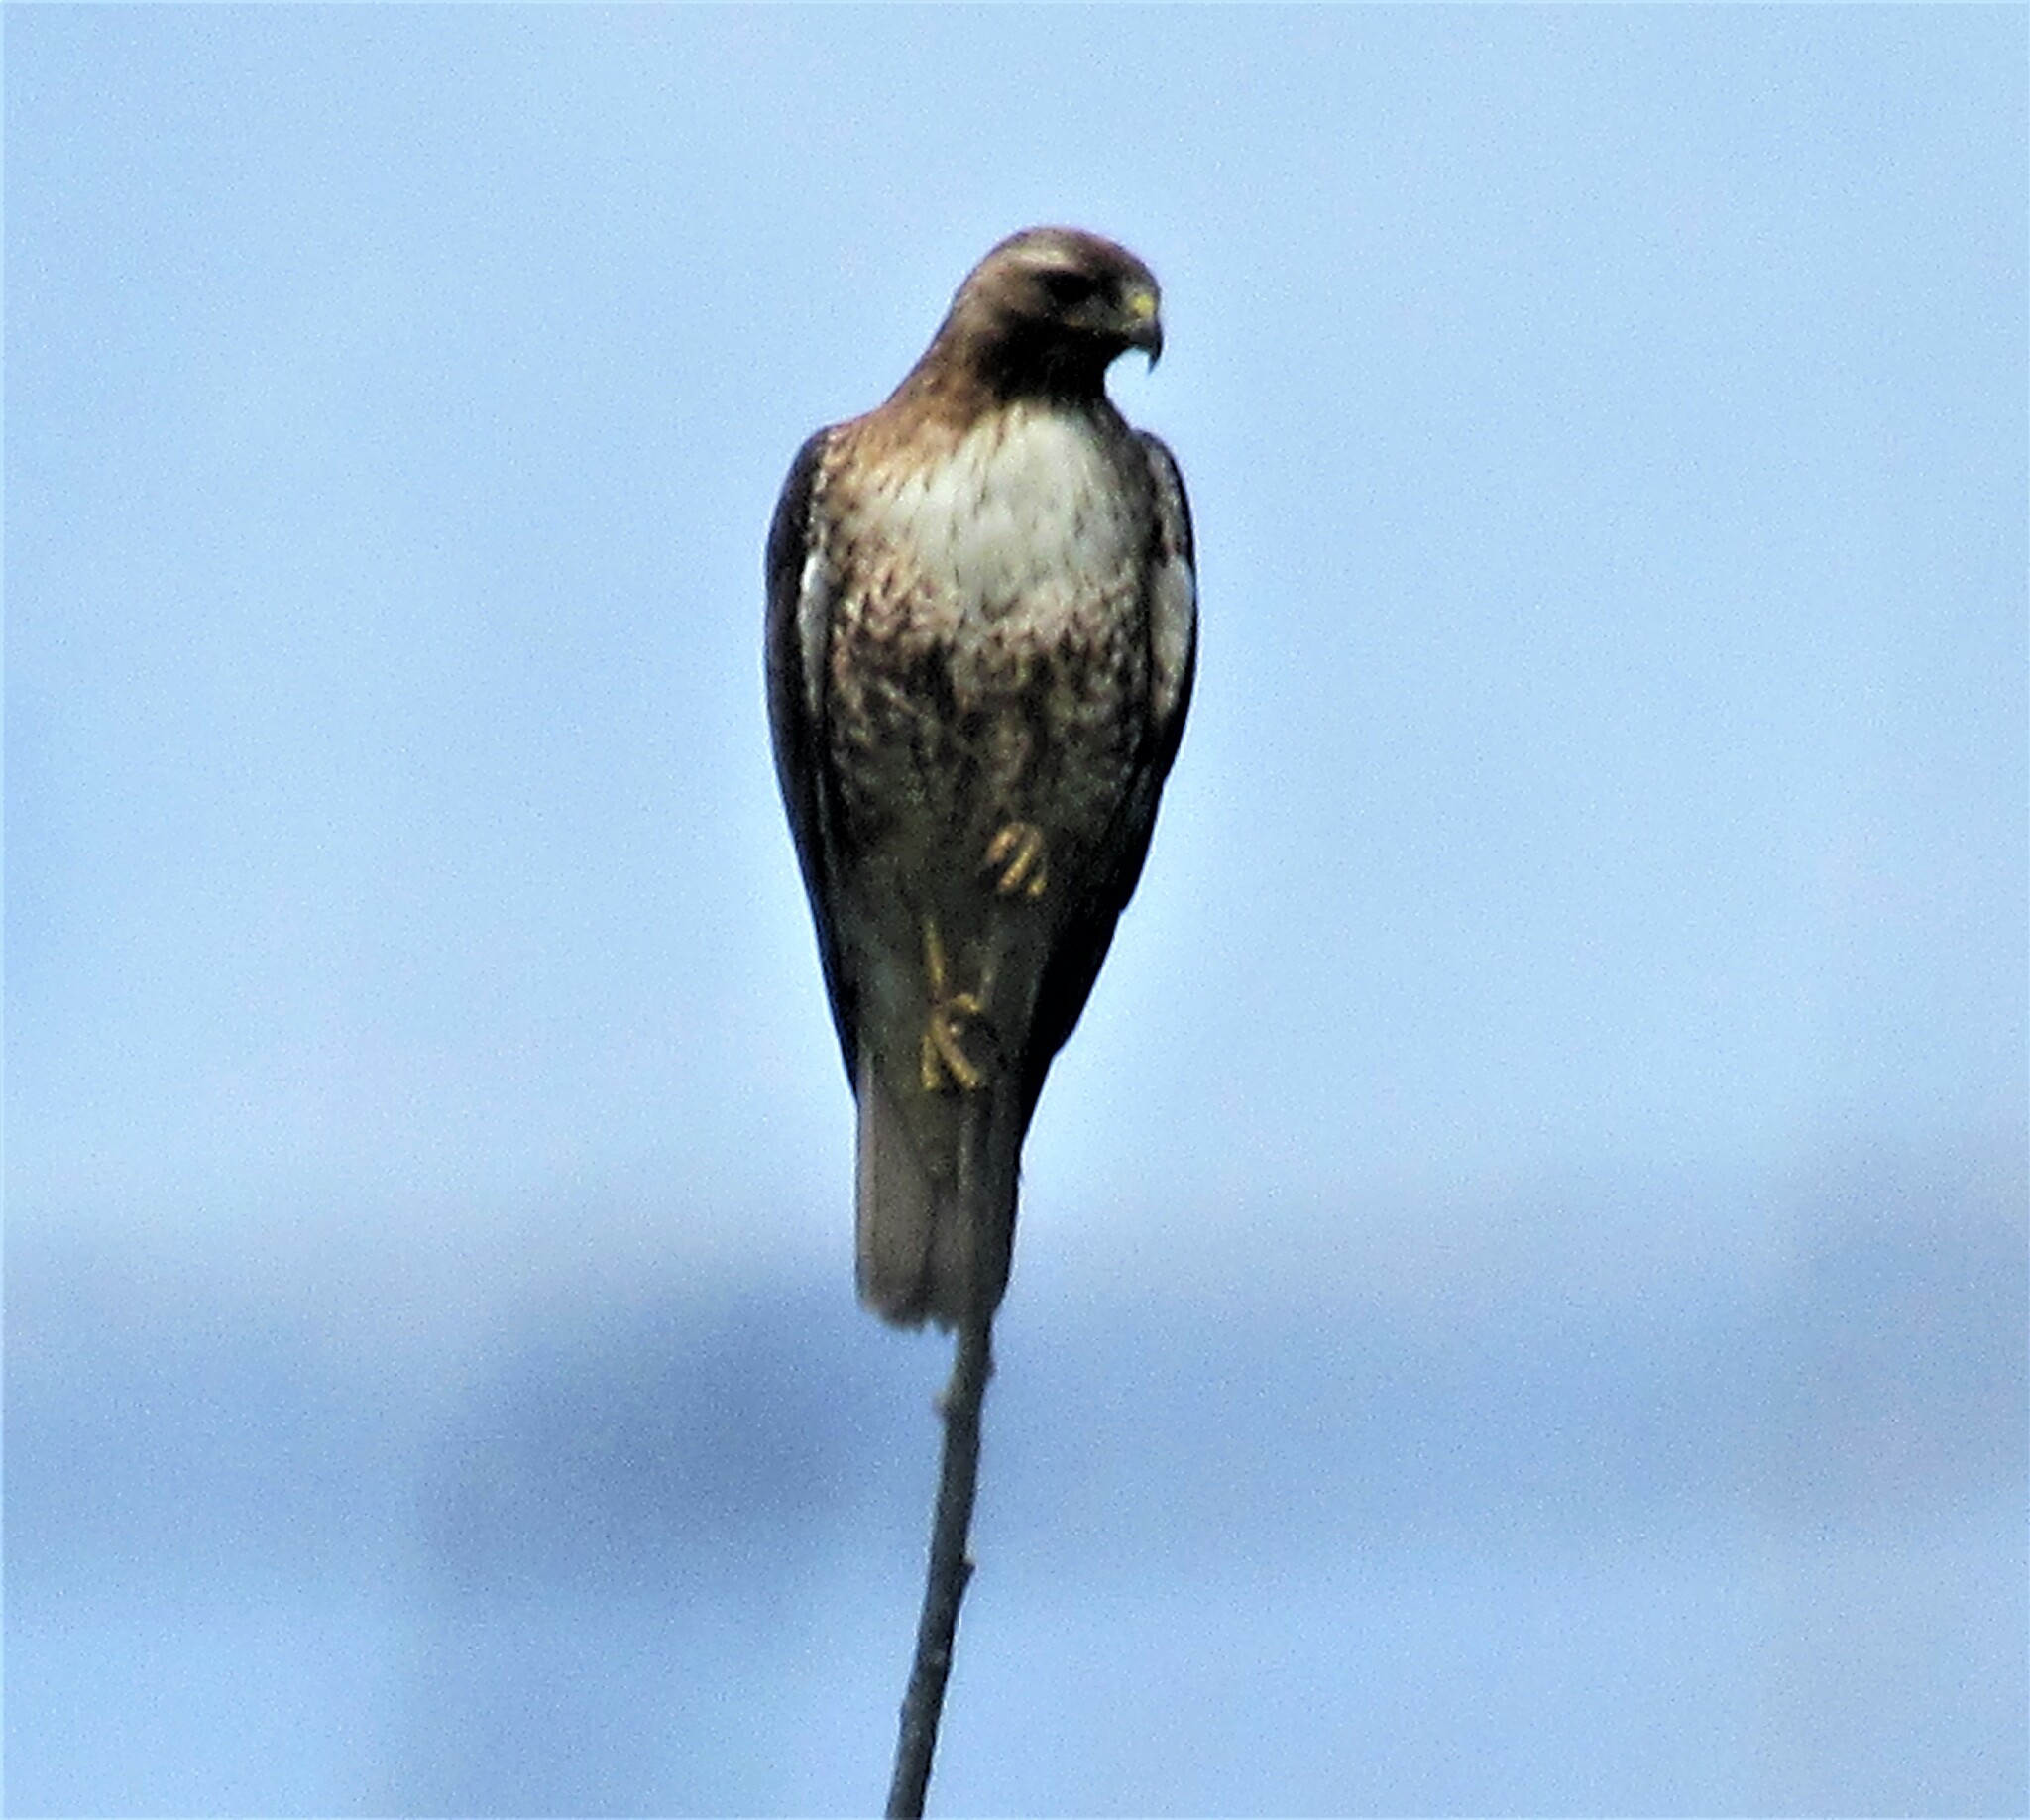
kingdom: Animalia
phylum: Chordata
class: Aves
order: Accipitriformes
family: Accipitridae
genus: Buteo
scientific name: Buteo jamaicensis
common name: Red-tailed hawk
